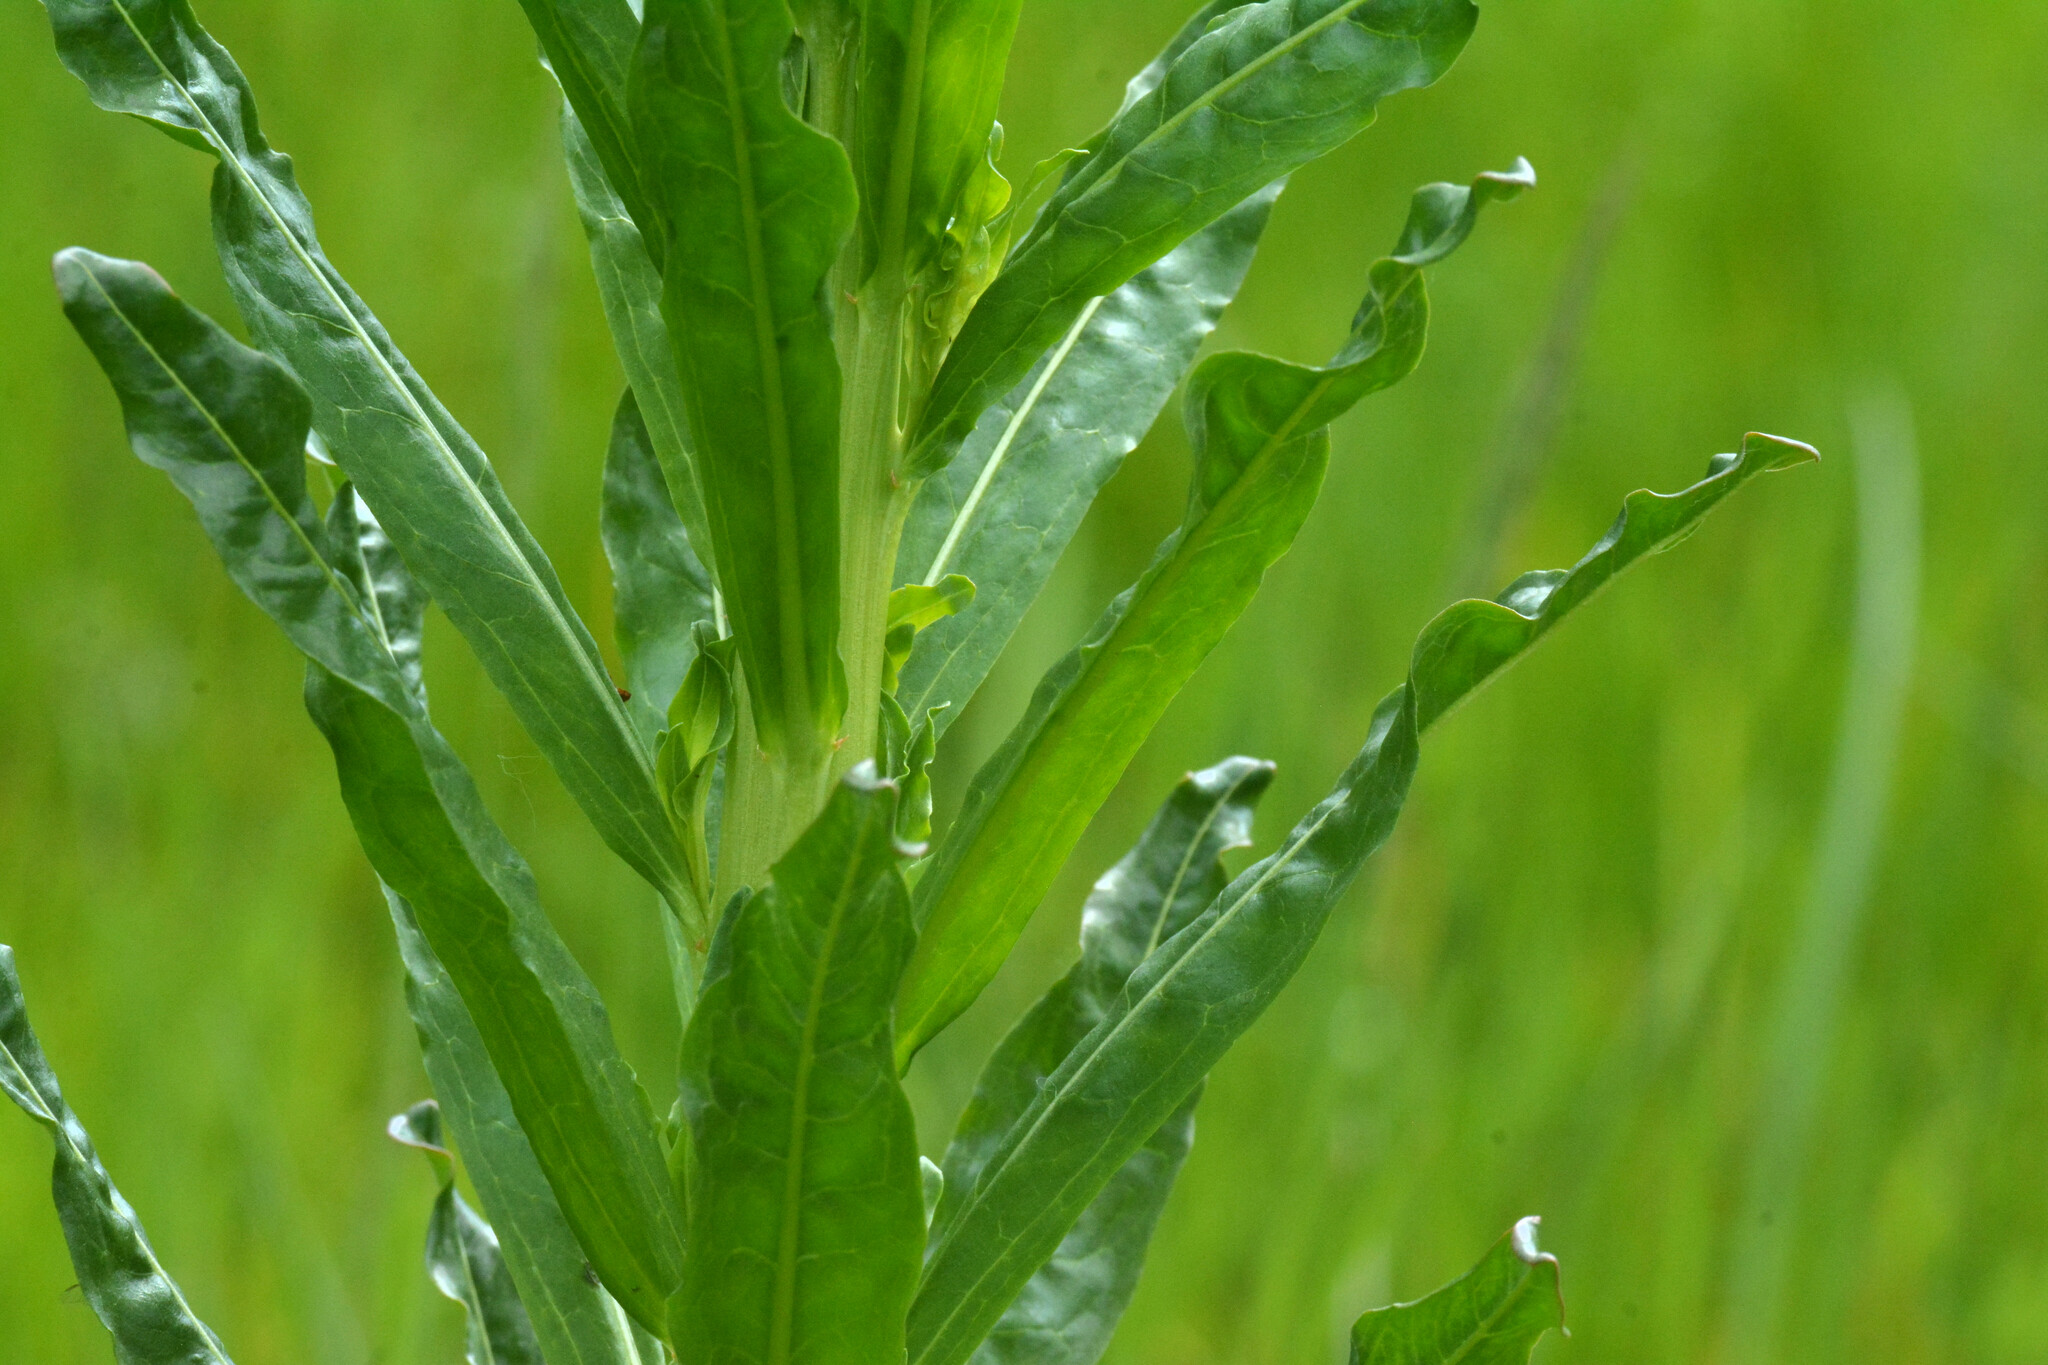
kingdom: Plantae
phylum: Tracheophyta
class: Magnoliopsida
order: Brassicales
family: Resedaceae
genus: Reseda
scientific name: Reseda luteola
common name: Weld
